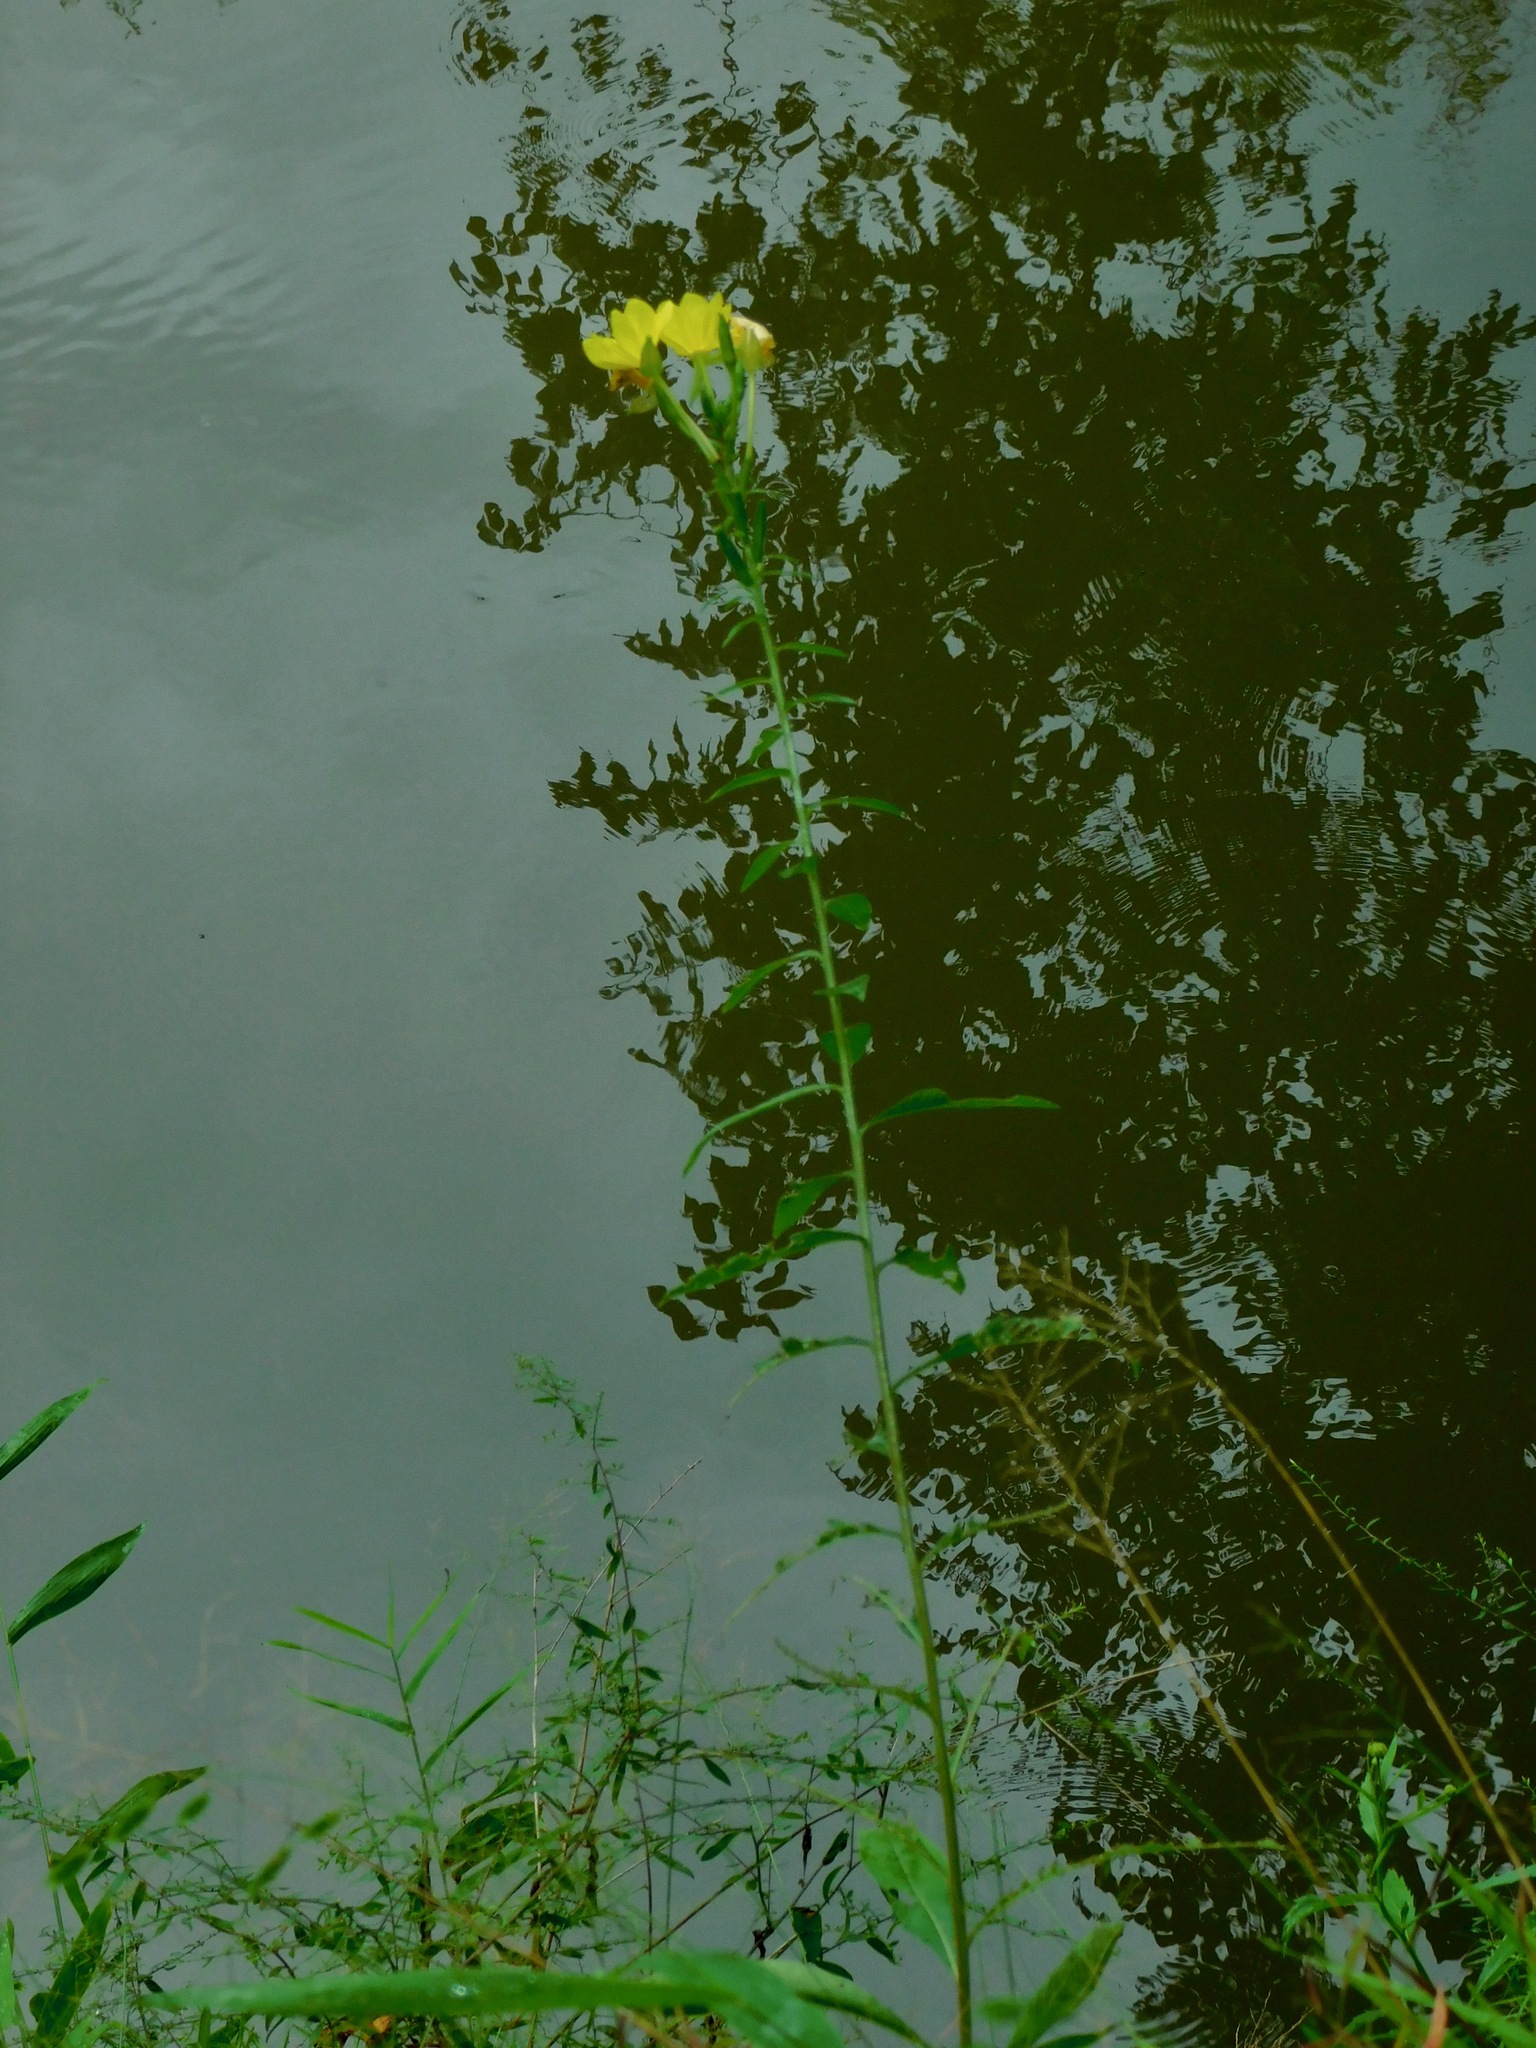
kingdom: Plantae
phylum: Tracheophyta
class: Magnoliopsida
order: Myrtales
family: Onagraceae
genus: Oenothera
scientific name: Oenothera biennis
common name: Common evening-primrose
